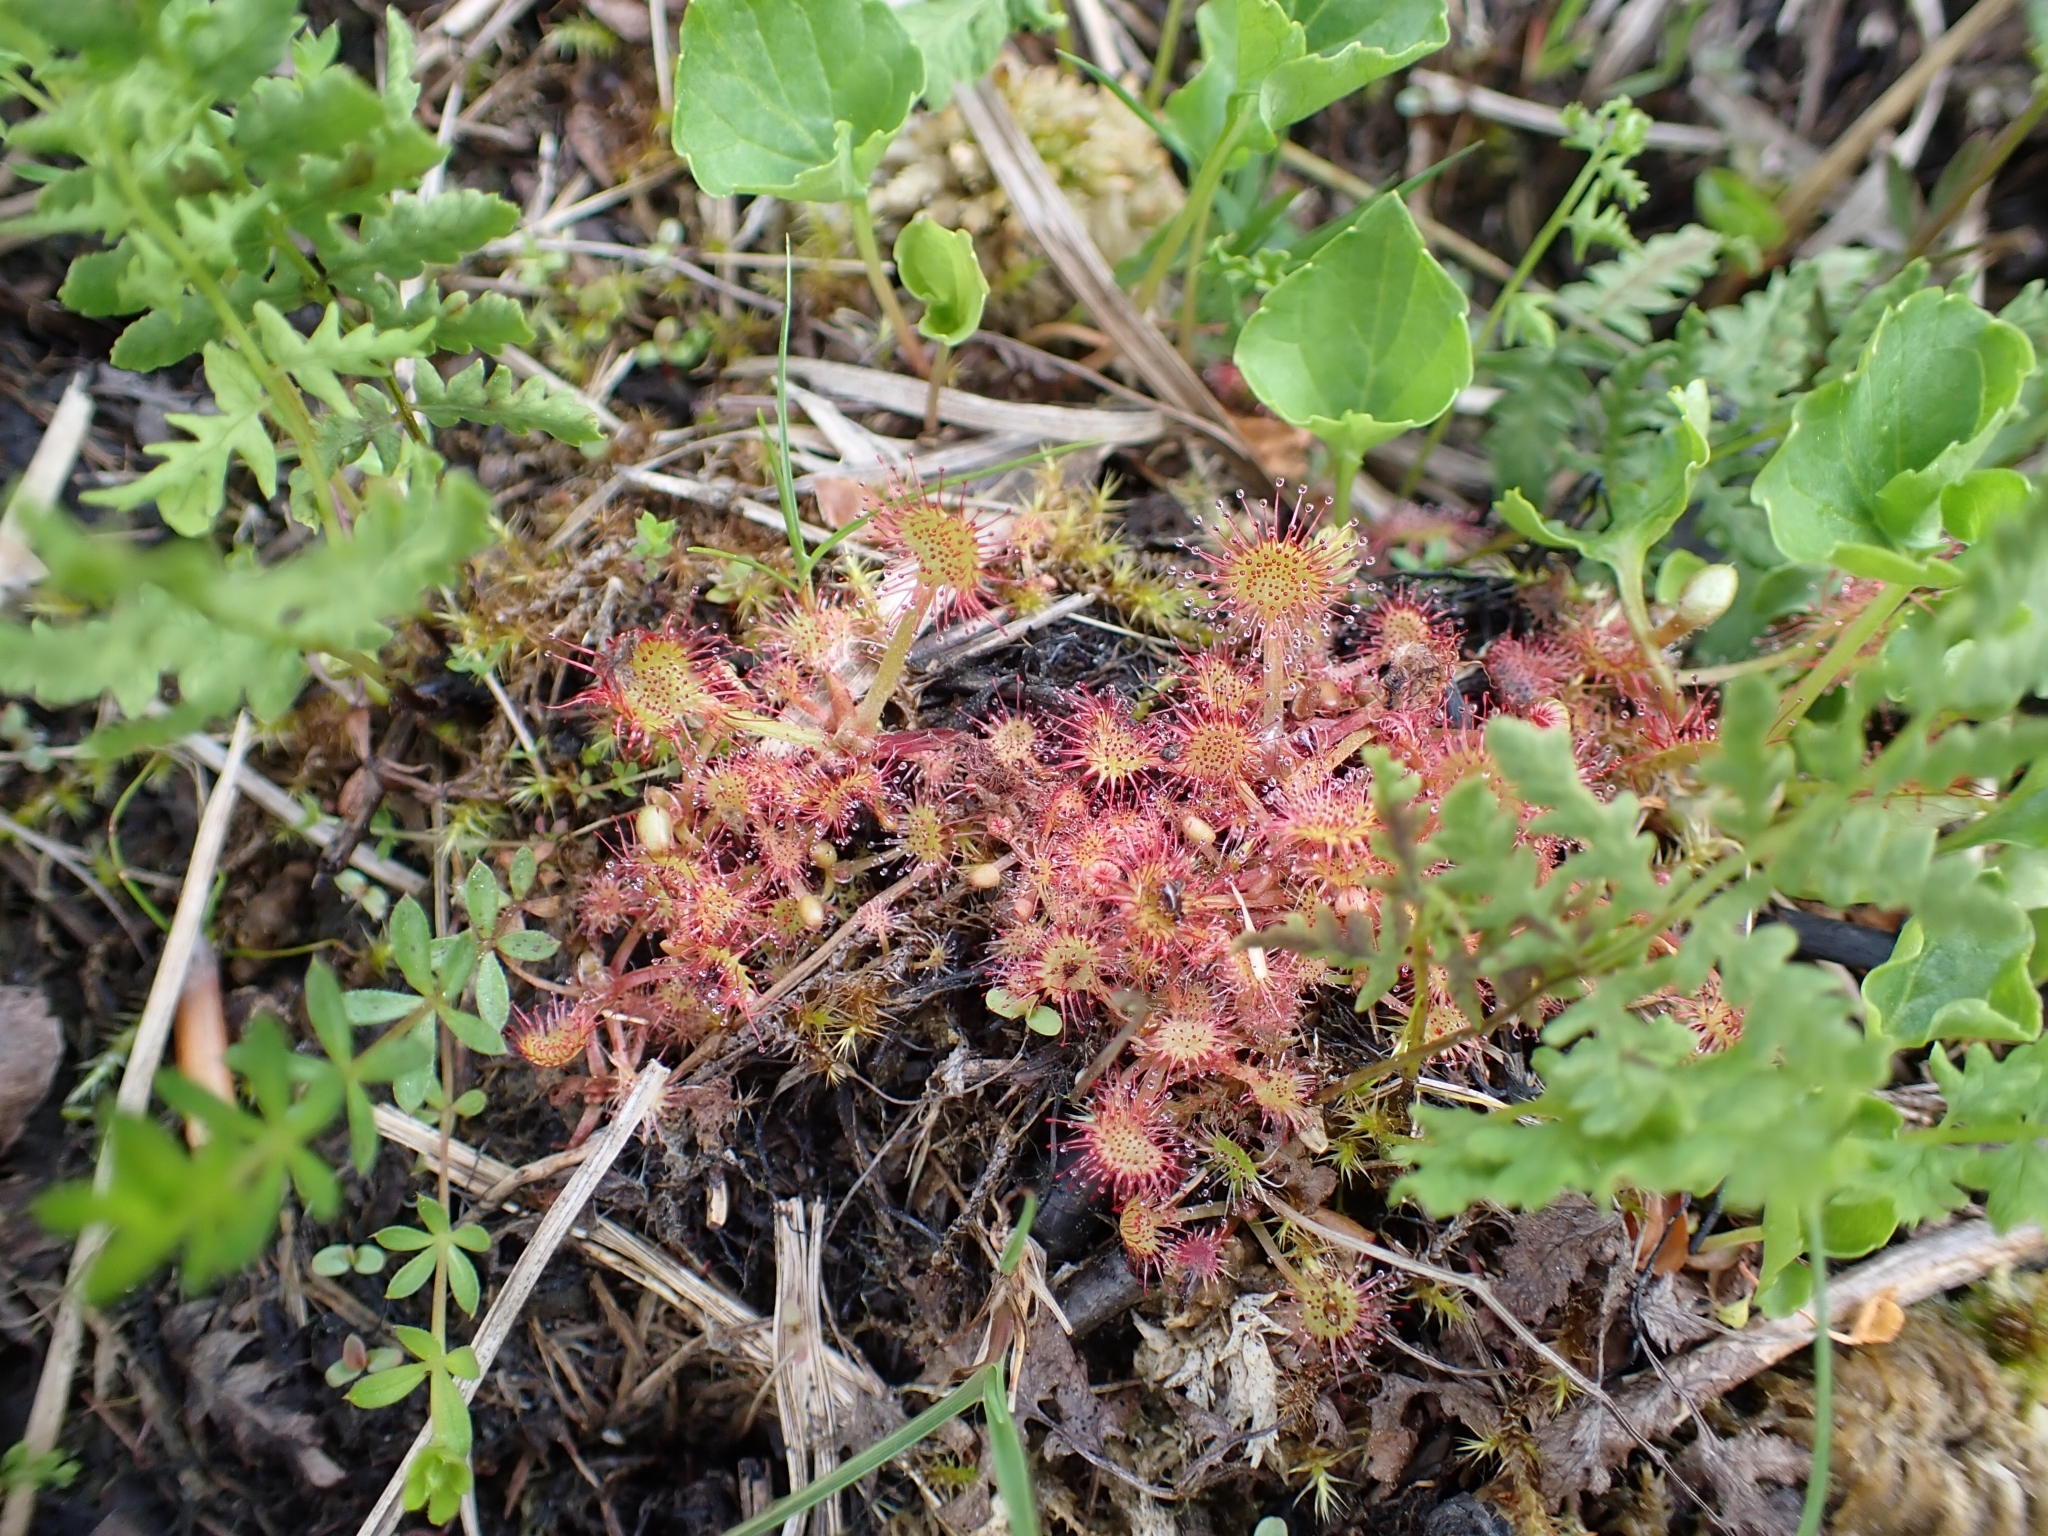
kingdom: Plantae
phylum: Tracheophyta
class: Magnoliopsida
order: Caryophyllales
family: Droseraceae
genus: Drosera
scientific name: Drosera rotundifolia
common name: Round-leaved sundew
